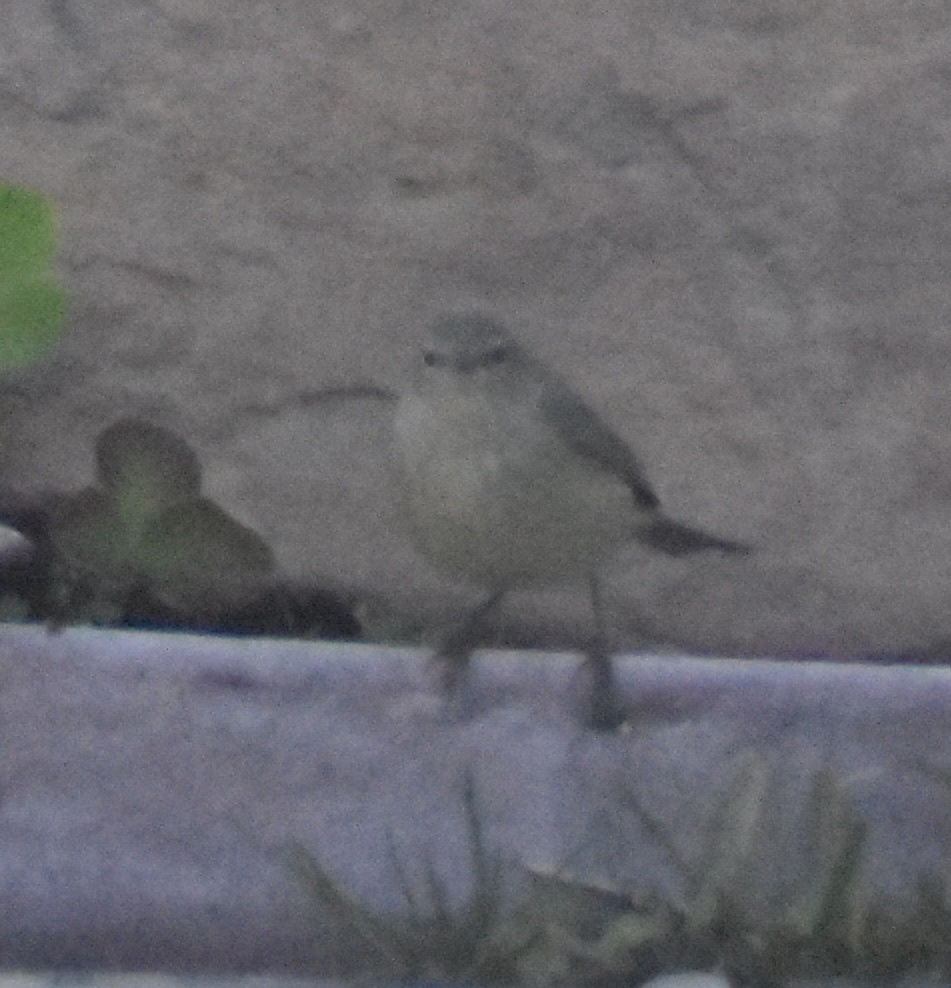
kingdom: Animalia
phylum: Chordata
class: Aves
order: Passeriformes
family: Parulidae
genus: Leiothlypis
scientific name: Leiothlypis celata
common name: Orange-crowned warbler
